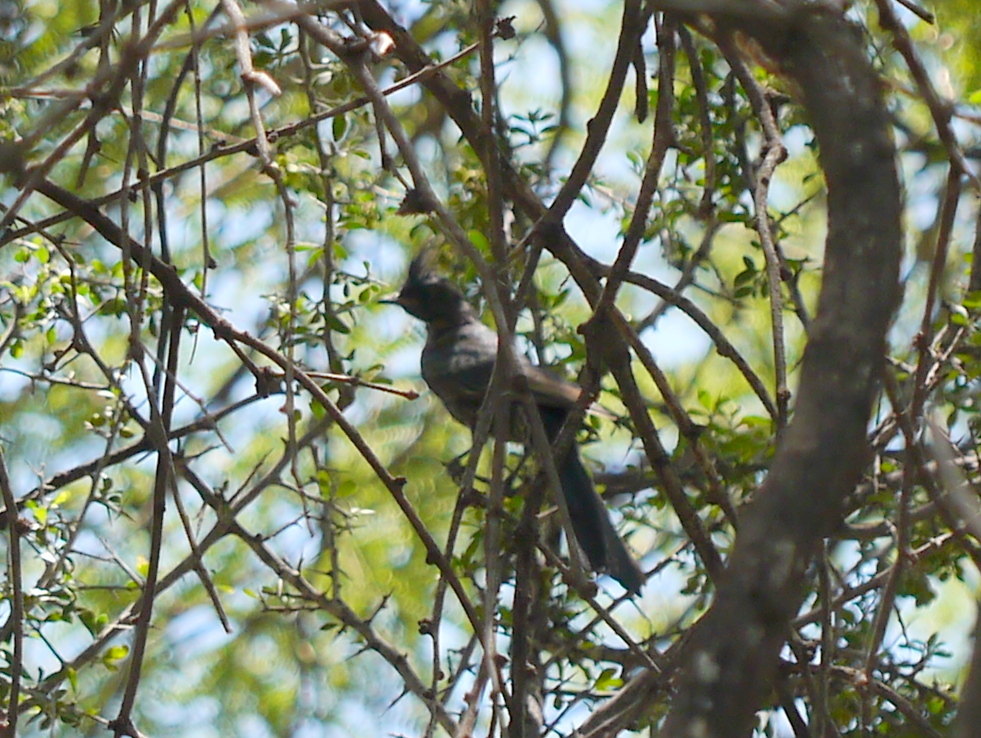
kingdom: Animalia
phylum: Chordata
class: Aves
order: Passeriformes
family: Ptilogonatidae
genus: Phainopepla
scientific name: Phainopepla nitens
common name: Phainopepla
